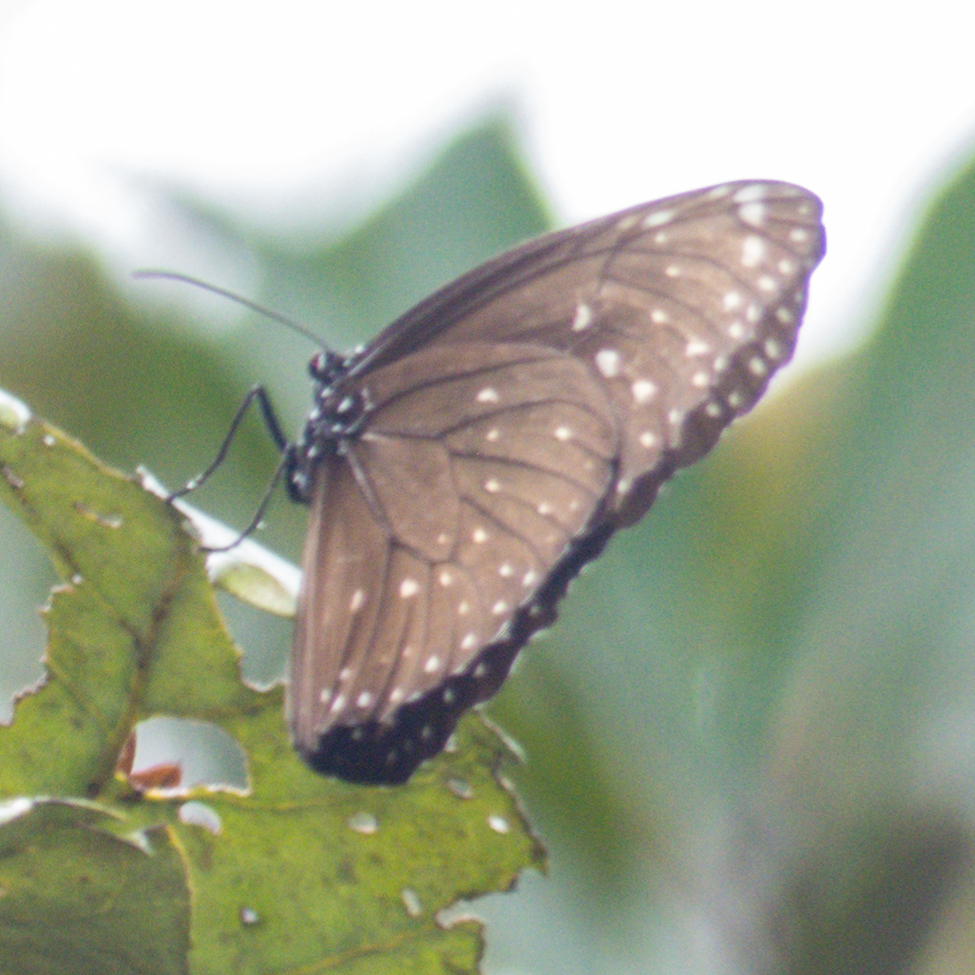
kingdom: Animalia
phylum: Arthropoda
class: Insecta
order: Lepidoptera
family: Nymphalidae
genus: Euploea
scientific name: Euploea phaenareta
